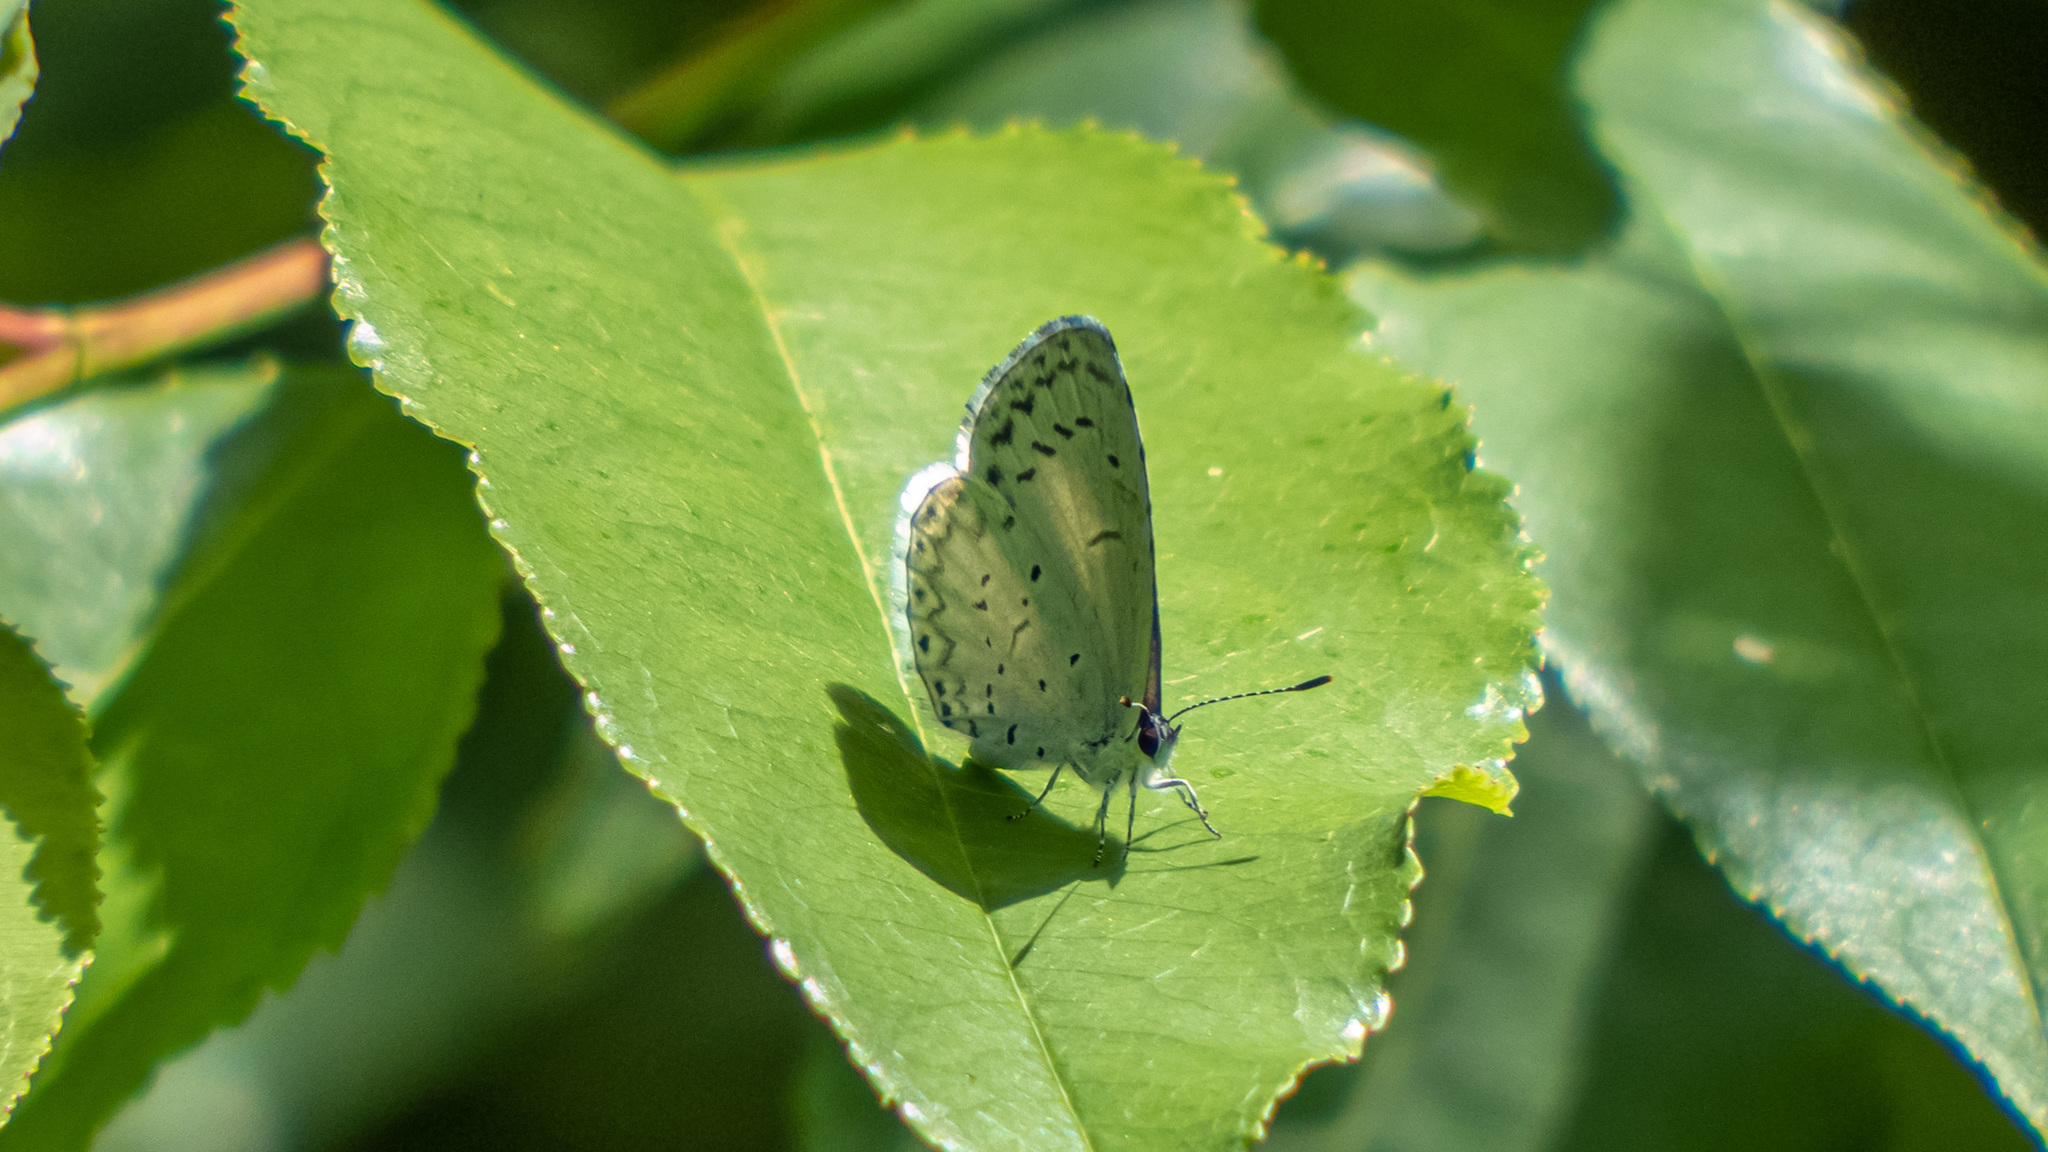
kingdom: Animalia
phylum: Arthropoda
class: Insecta
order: Lepidoptera
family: Lycaenidae
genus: Cyaniris
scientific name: Cyaniris neglecta
